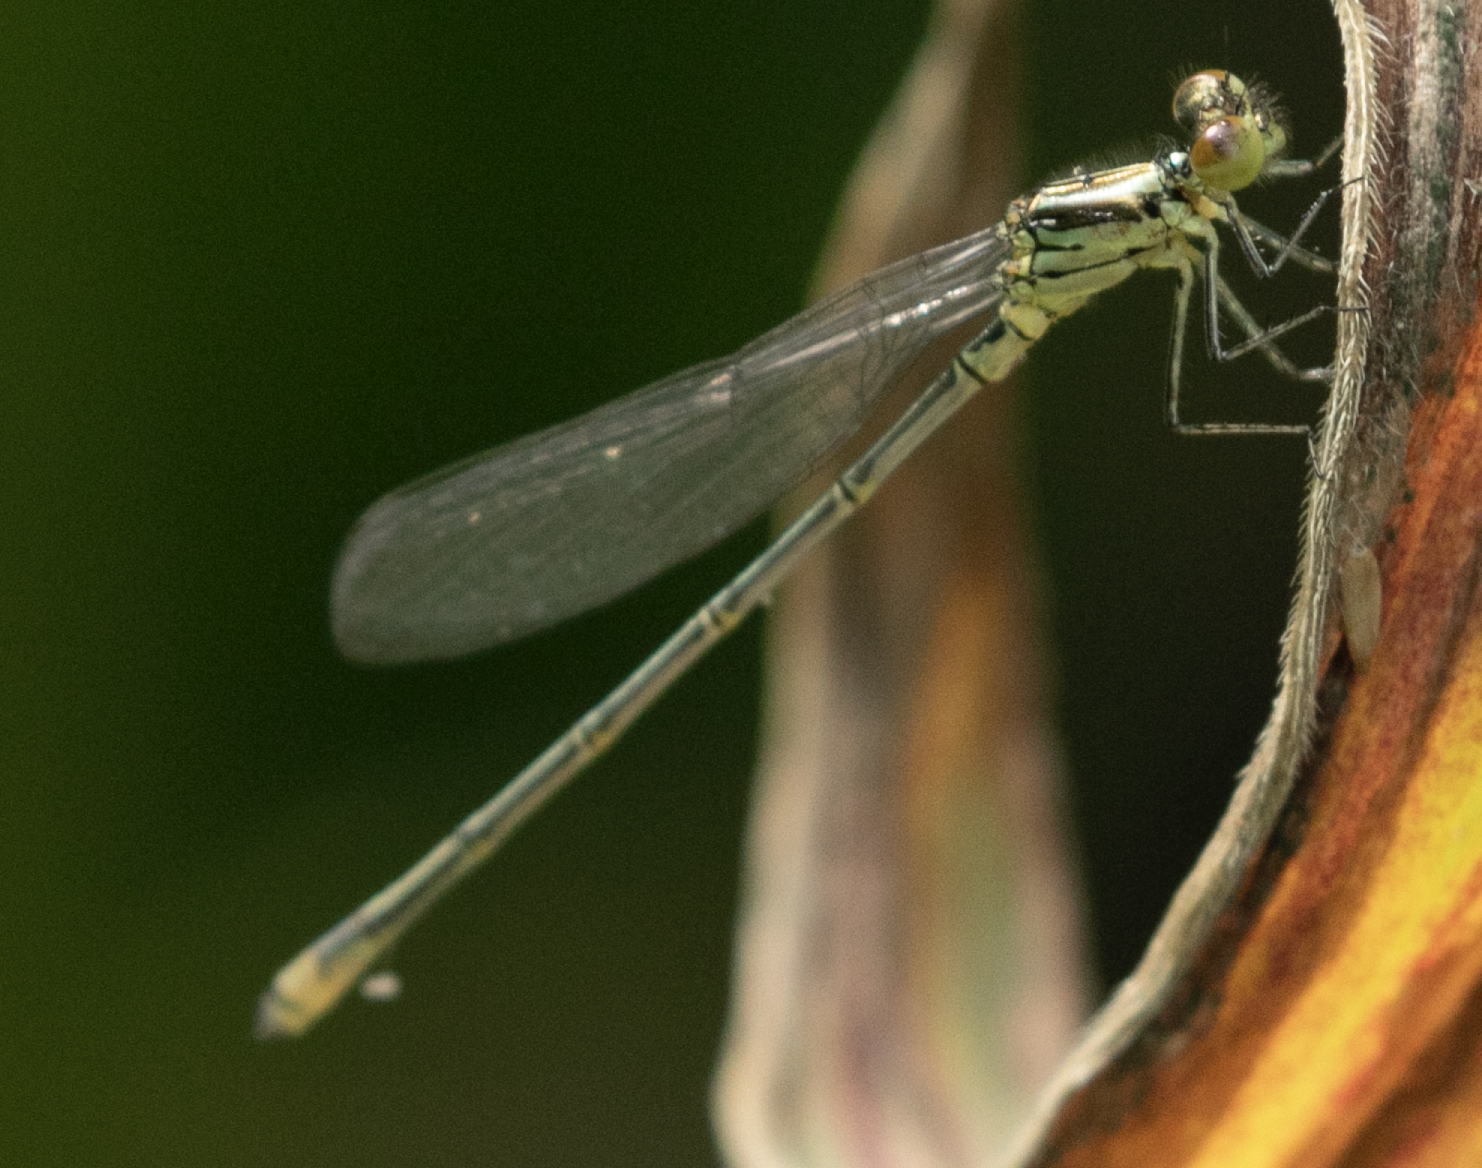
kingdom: Animalia
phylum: Arthropoda
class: Insecta
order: Odonata
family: Coenagrionidae
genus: Erythromma
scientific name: Erythromma viridulum
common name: Small red-eyed damselfly
